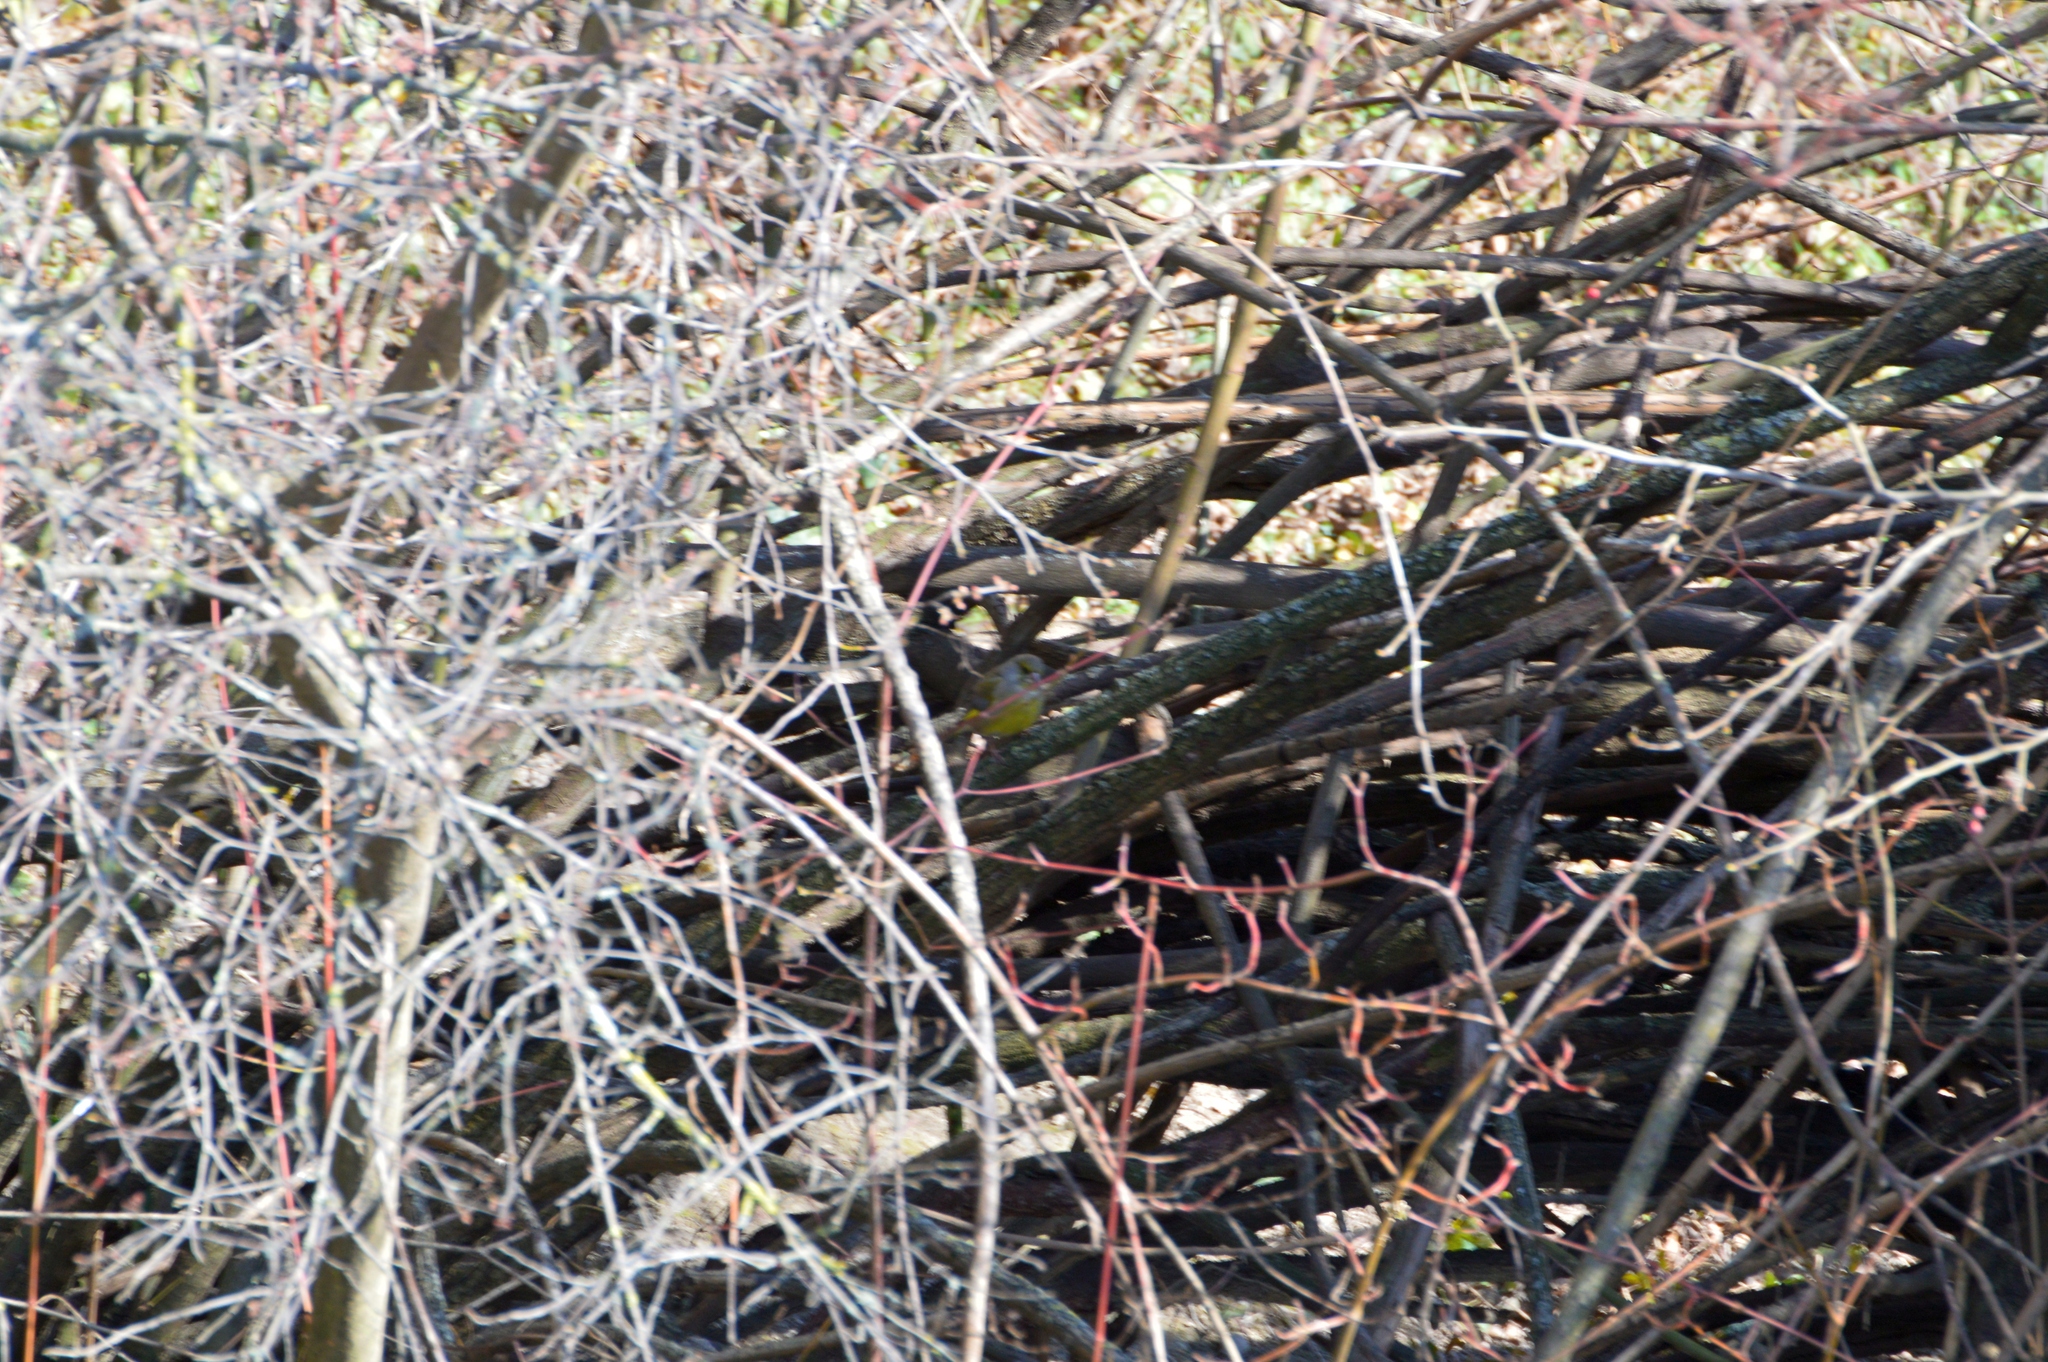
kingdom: Plantae
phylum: Tracheophyta
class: Liliopsida
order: Poales
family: Poaceae
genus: Chloris
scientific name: Chloris chloris
